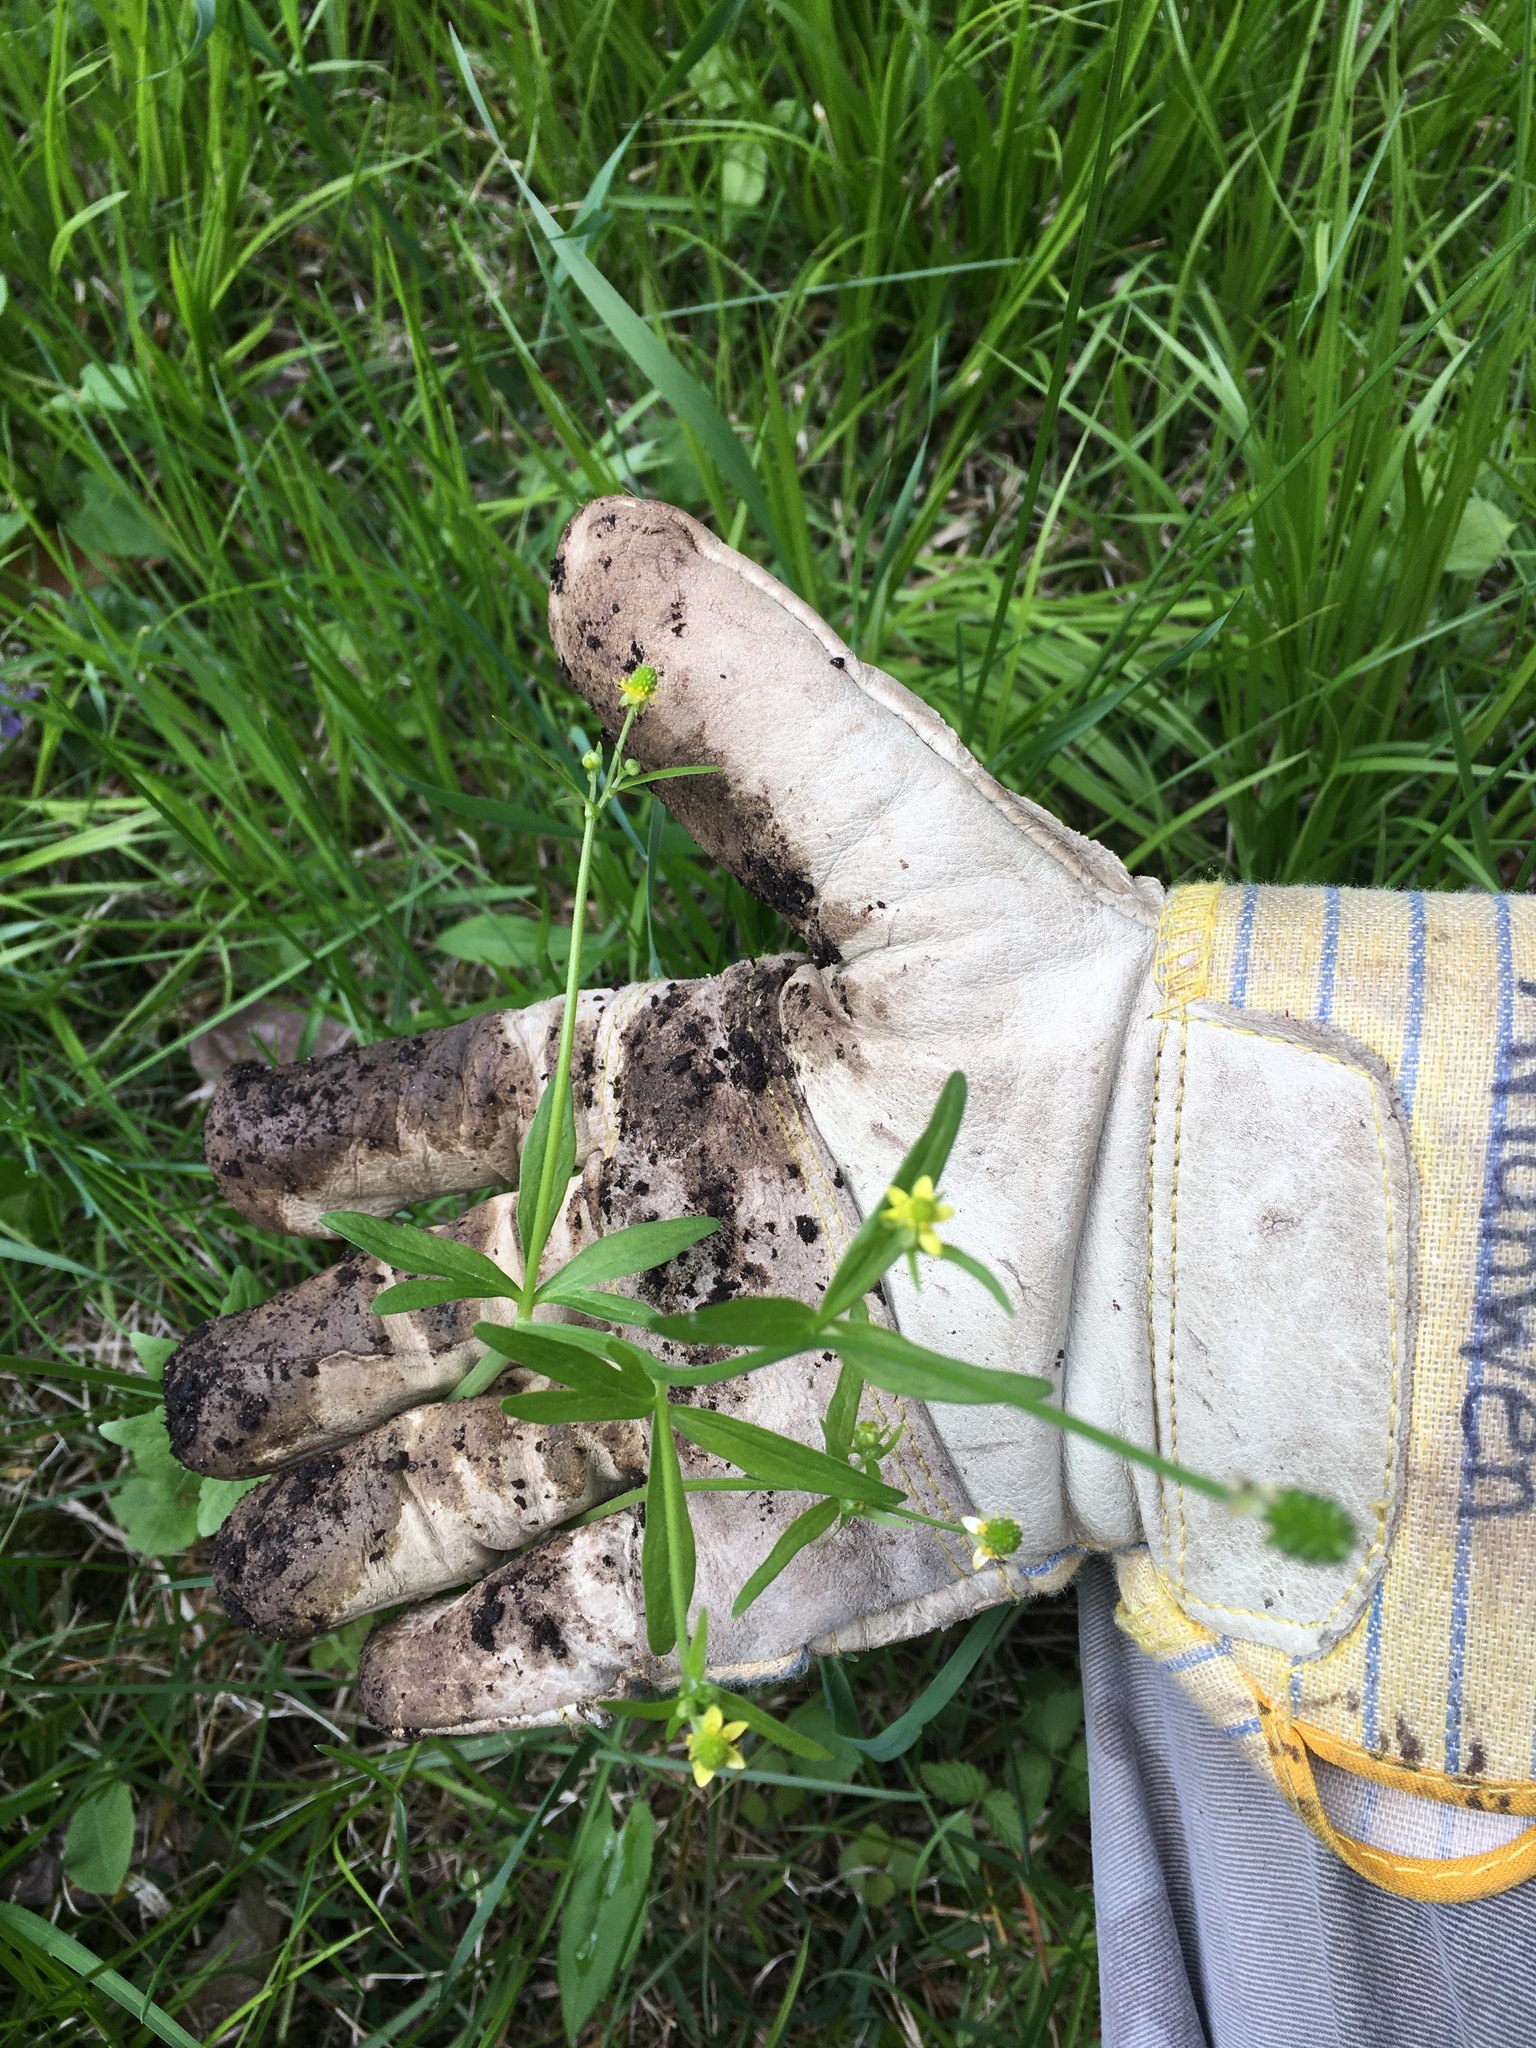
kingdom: Plantae
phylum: Tracheophyta
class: Magnoliopsida
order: Ranunculales
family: Ranunculaceae
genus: Ranunculus
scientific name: Ranunculus abortivus
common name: Early wood buttercup
